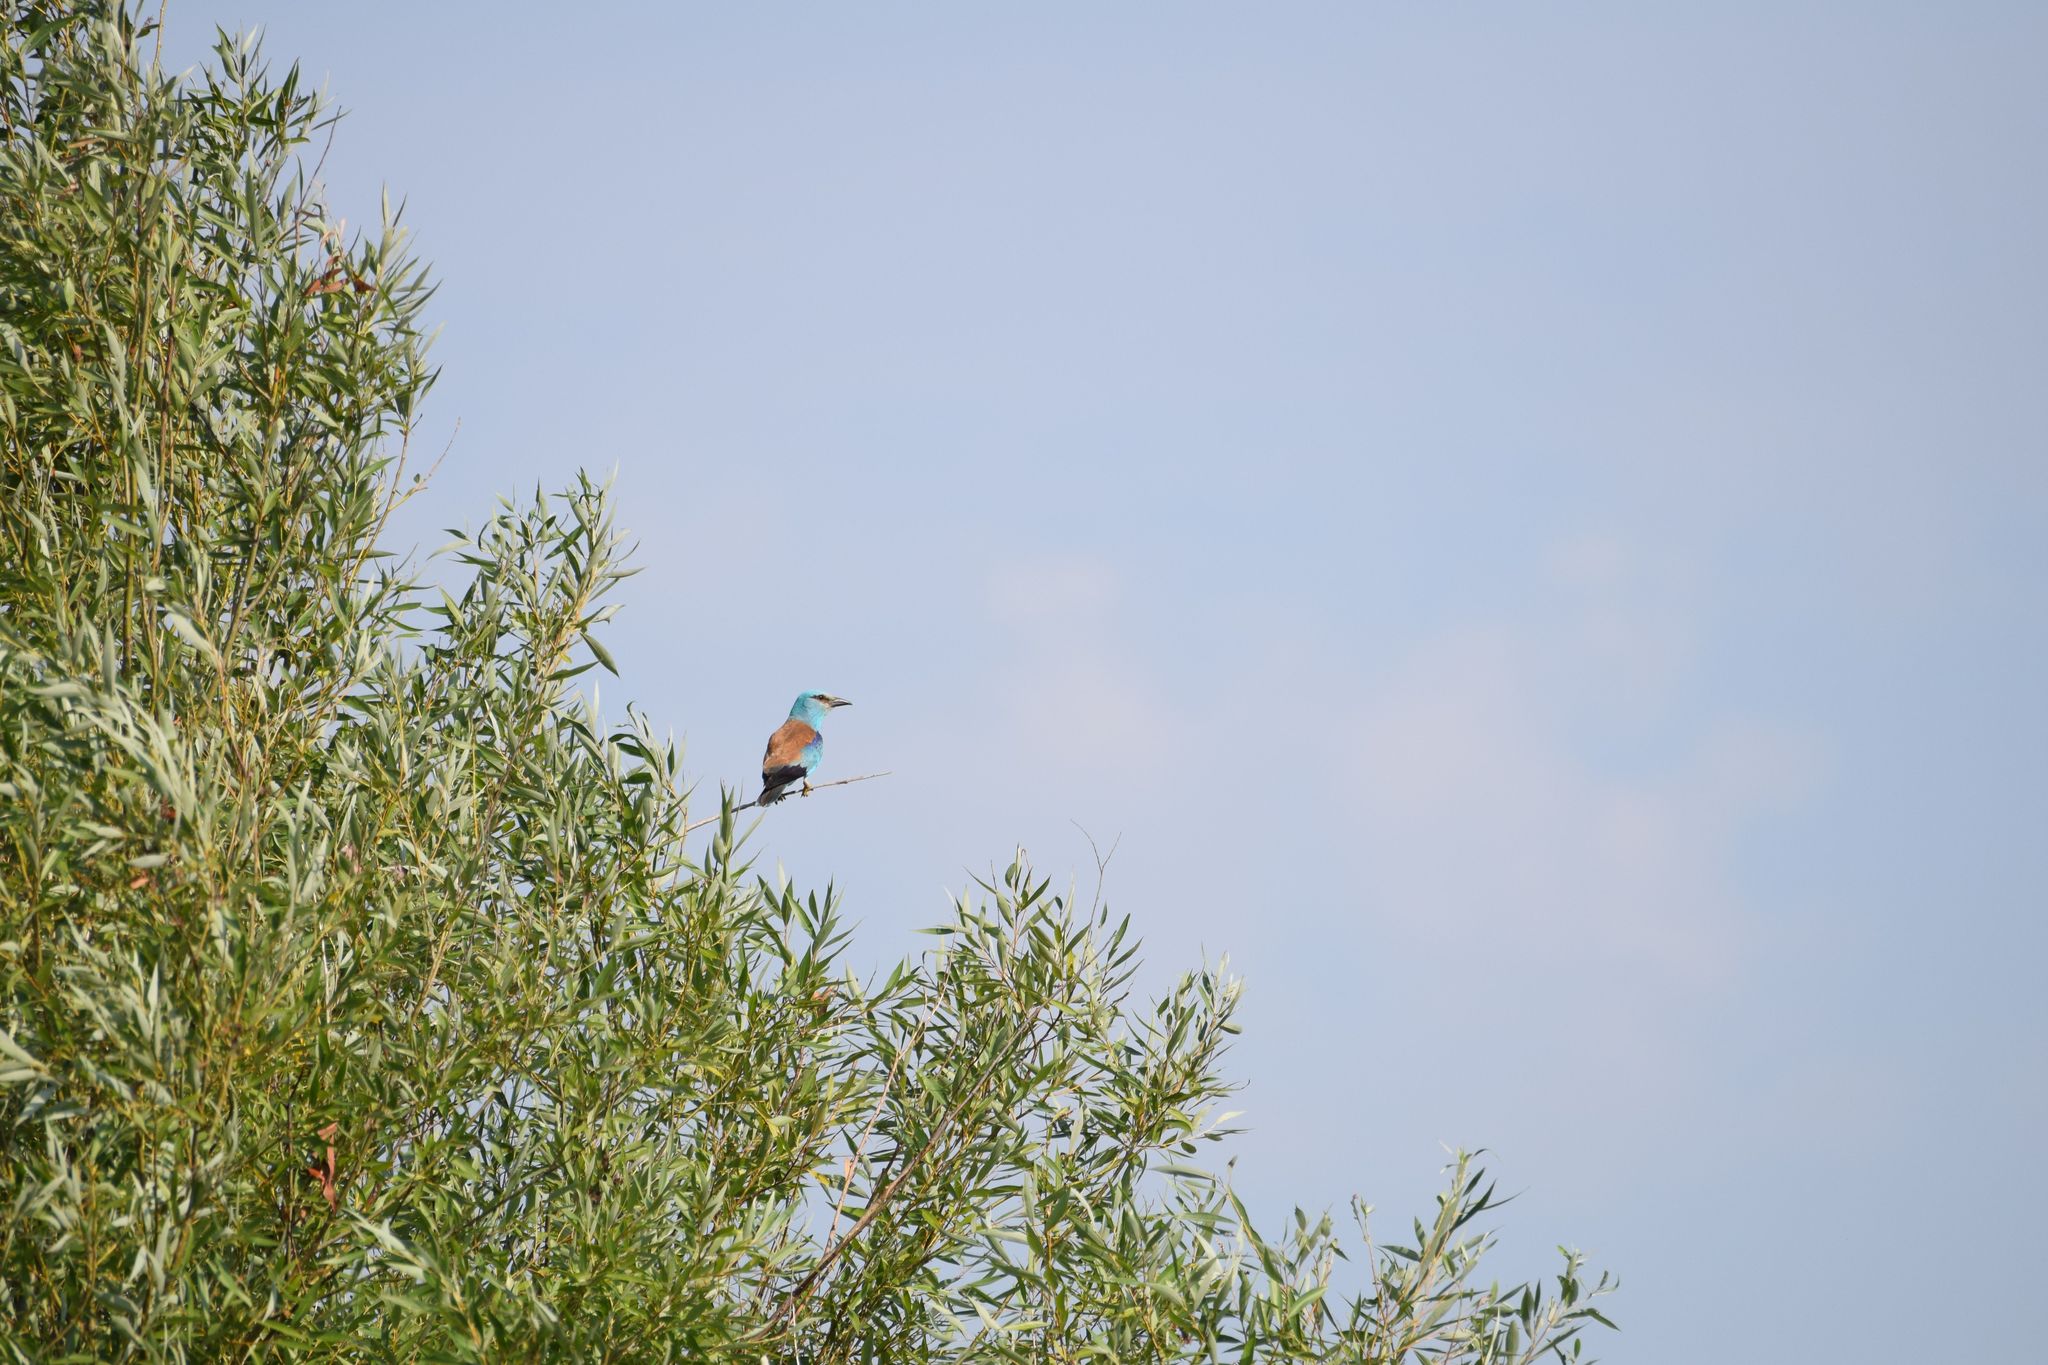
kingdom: Animalia
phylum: Chordata
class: Aves
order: Coraciiformes
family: Coraciidae
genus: Coracias
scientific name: Coracias garrulus
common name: European roller
